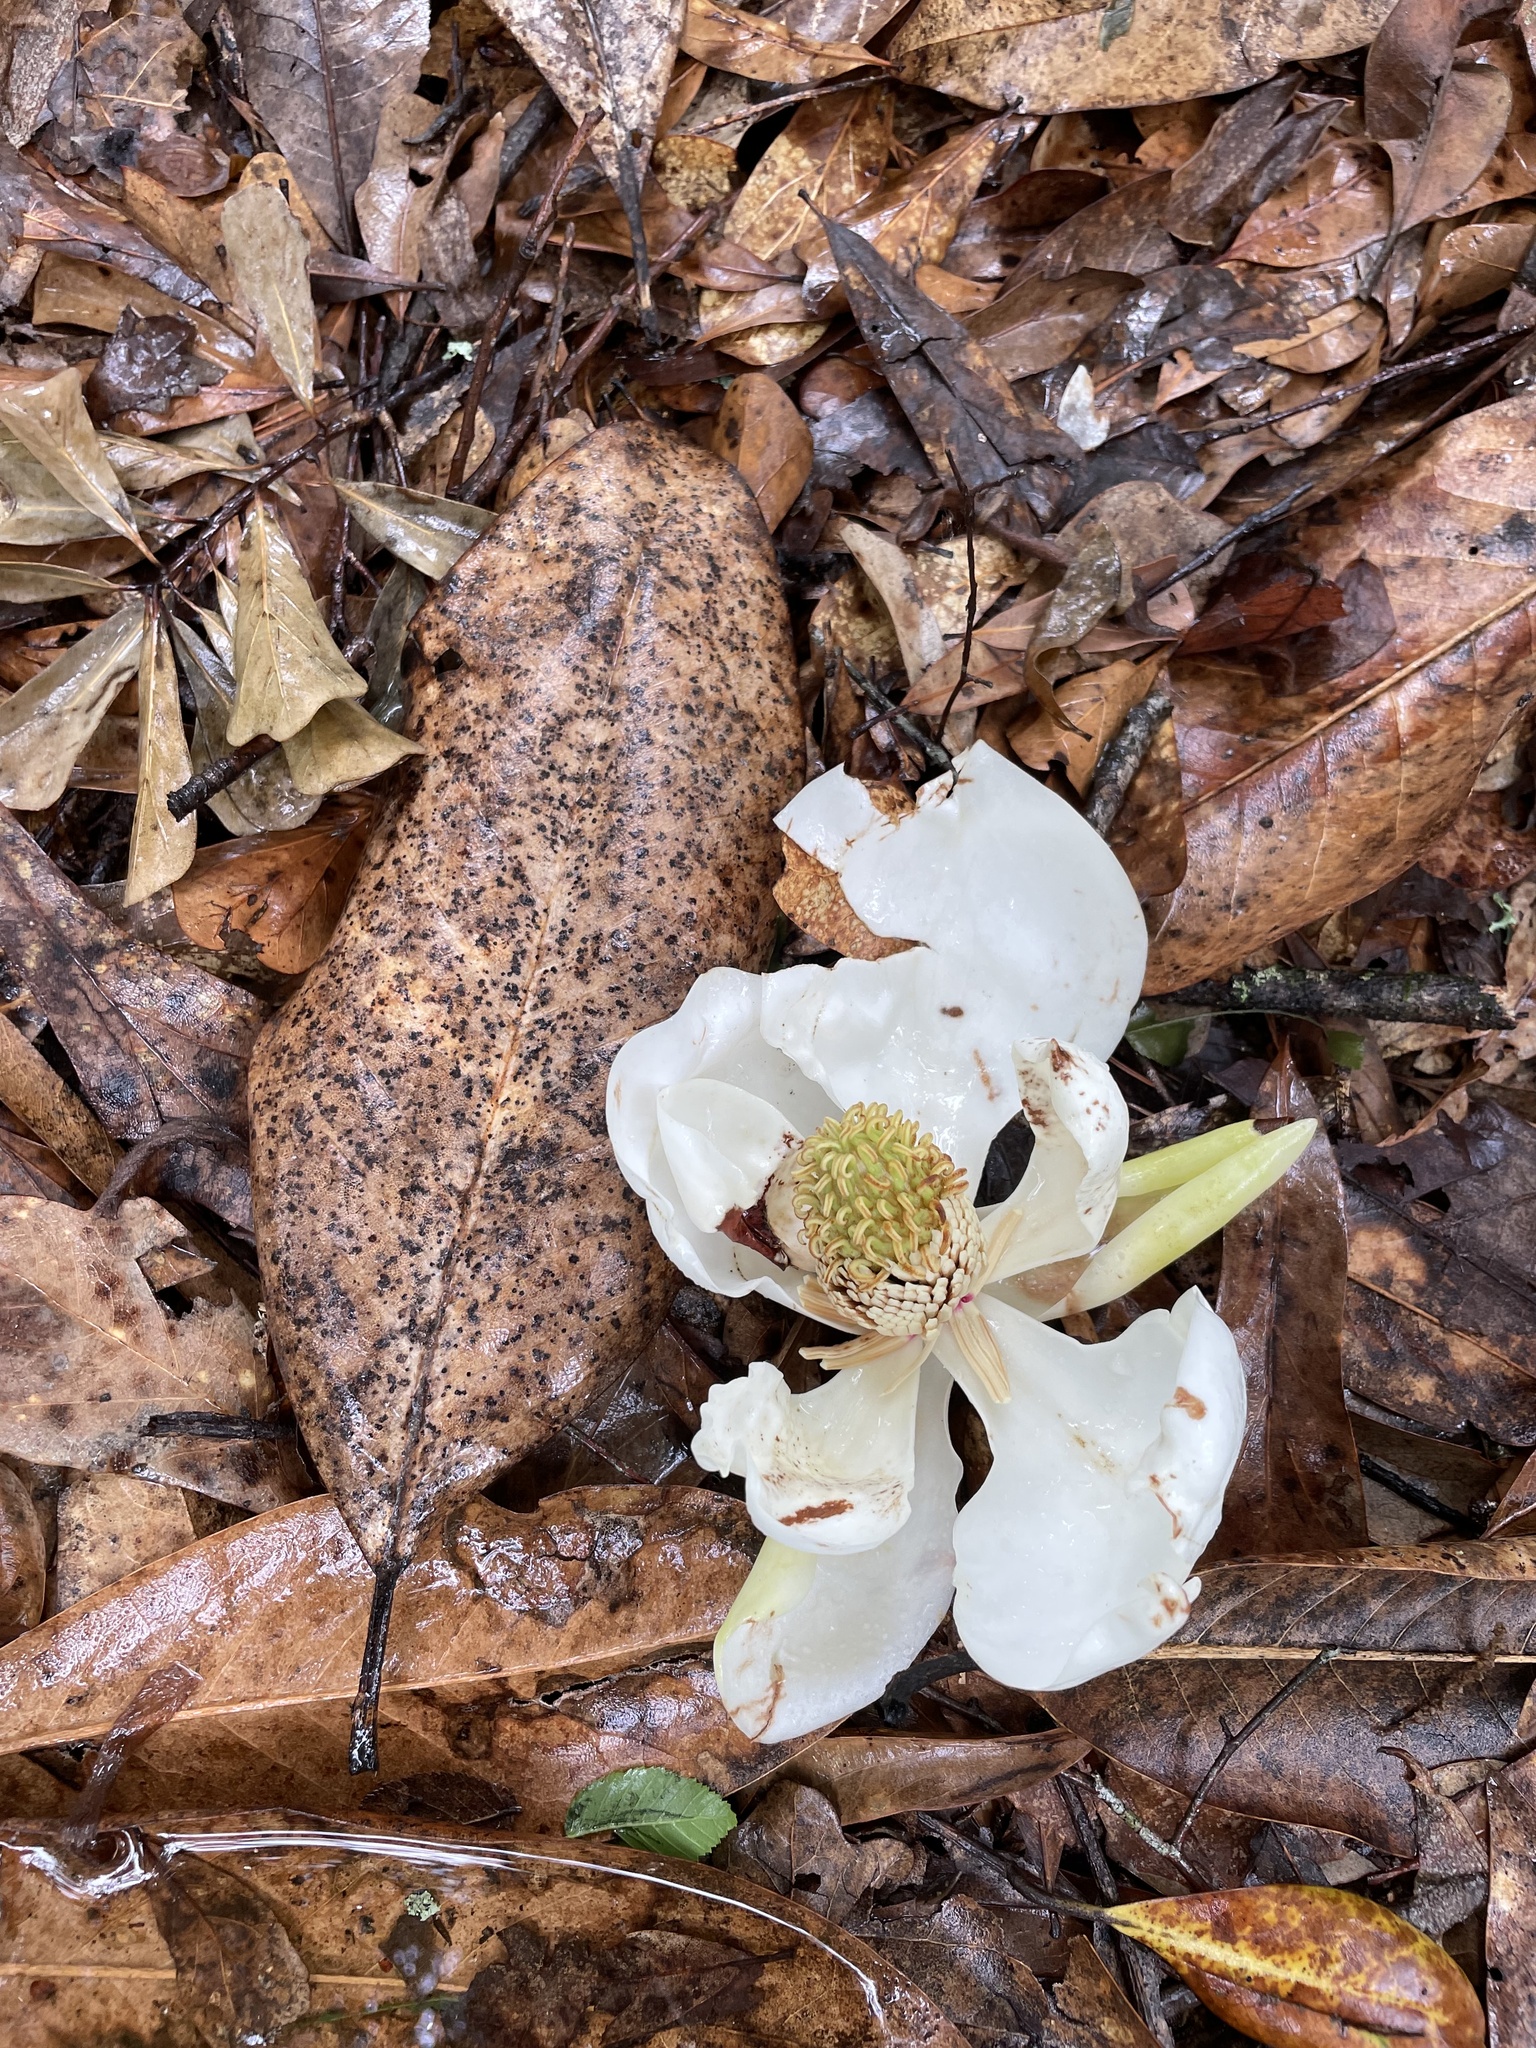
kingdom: Plantae
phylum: Tracheophyta
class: Magnoliopsida
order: Magnoliales
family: Magnoliaceae
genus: Magnolia
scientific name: Magnolia grandiflora
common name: Southern magnolia
